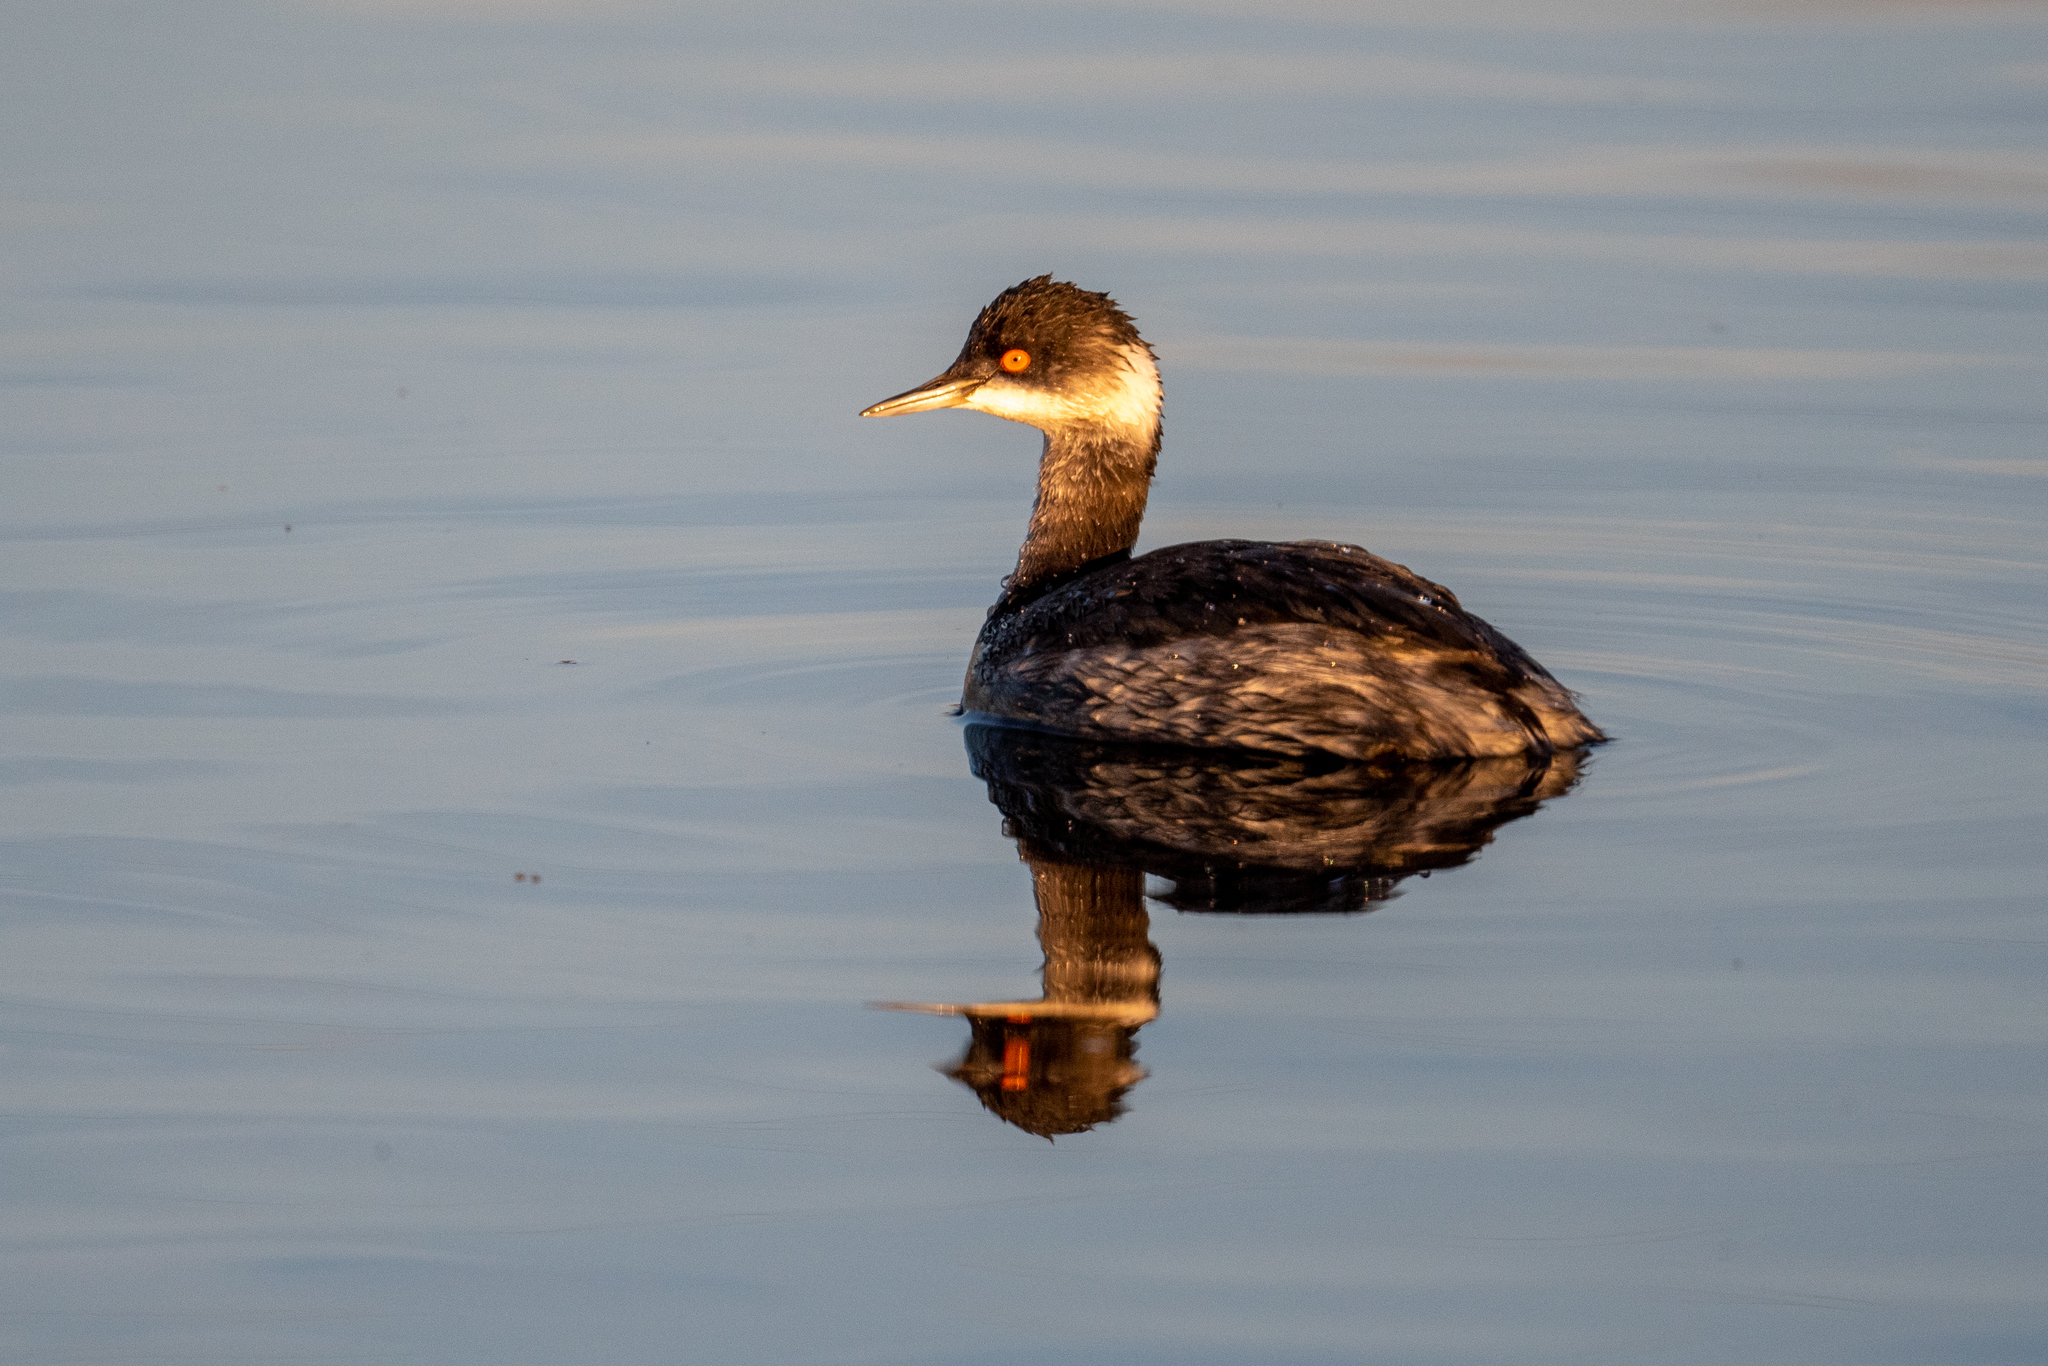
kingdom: Animalia
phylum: Chordata
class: Aves
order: Podicipediformes
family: Podicipedidae
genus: Podiceps
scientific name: Podiceps nigricollis
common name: Black-necked grebe
